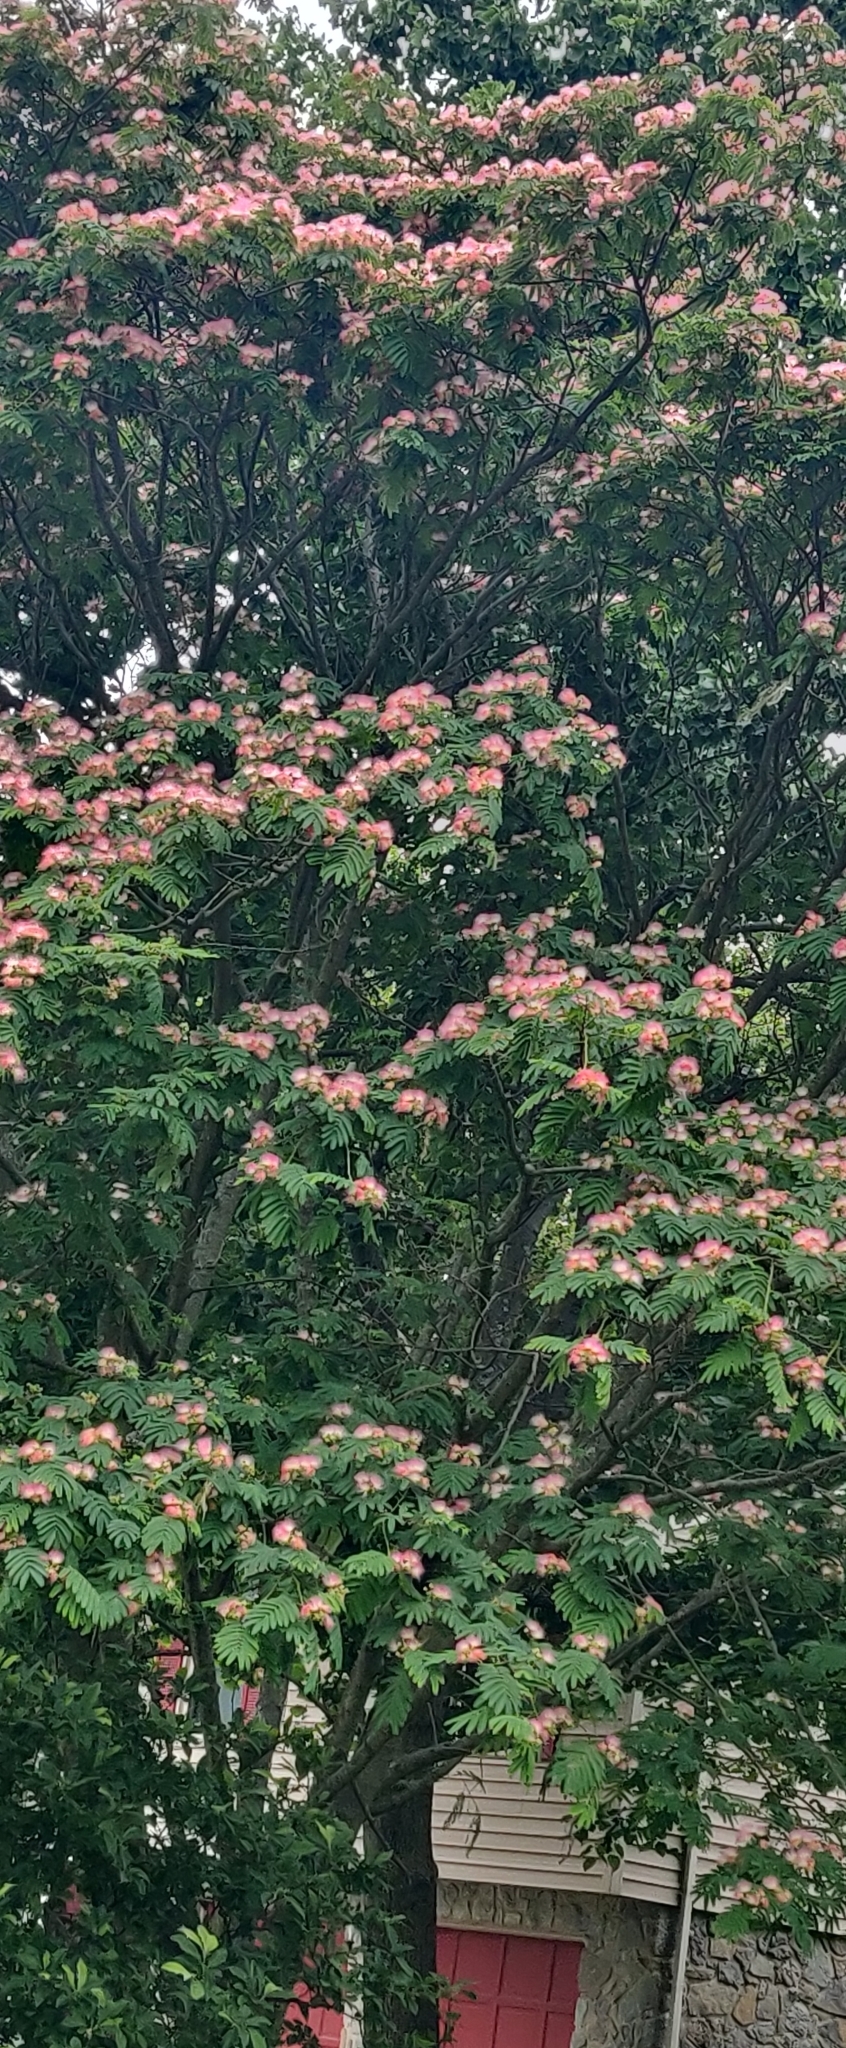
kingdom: Plantae
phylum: Tracheophyta
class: Magnoliopsida
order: Fabales
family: Fabaceae
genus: Albizia
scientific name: Albizia julibrissin
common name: Silktree
